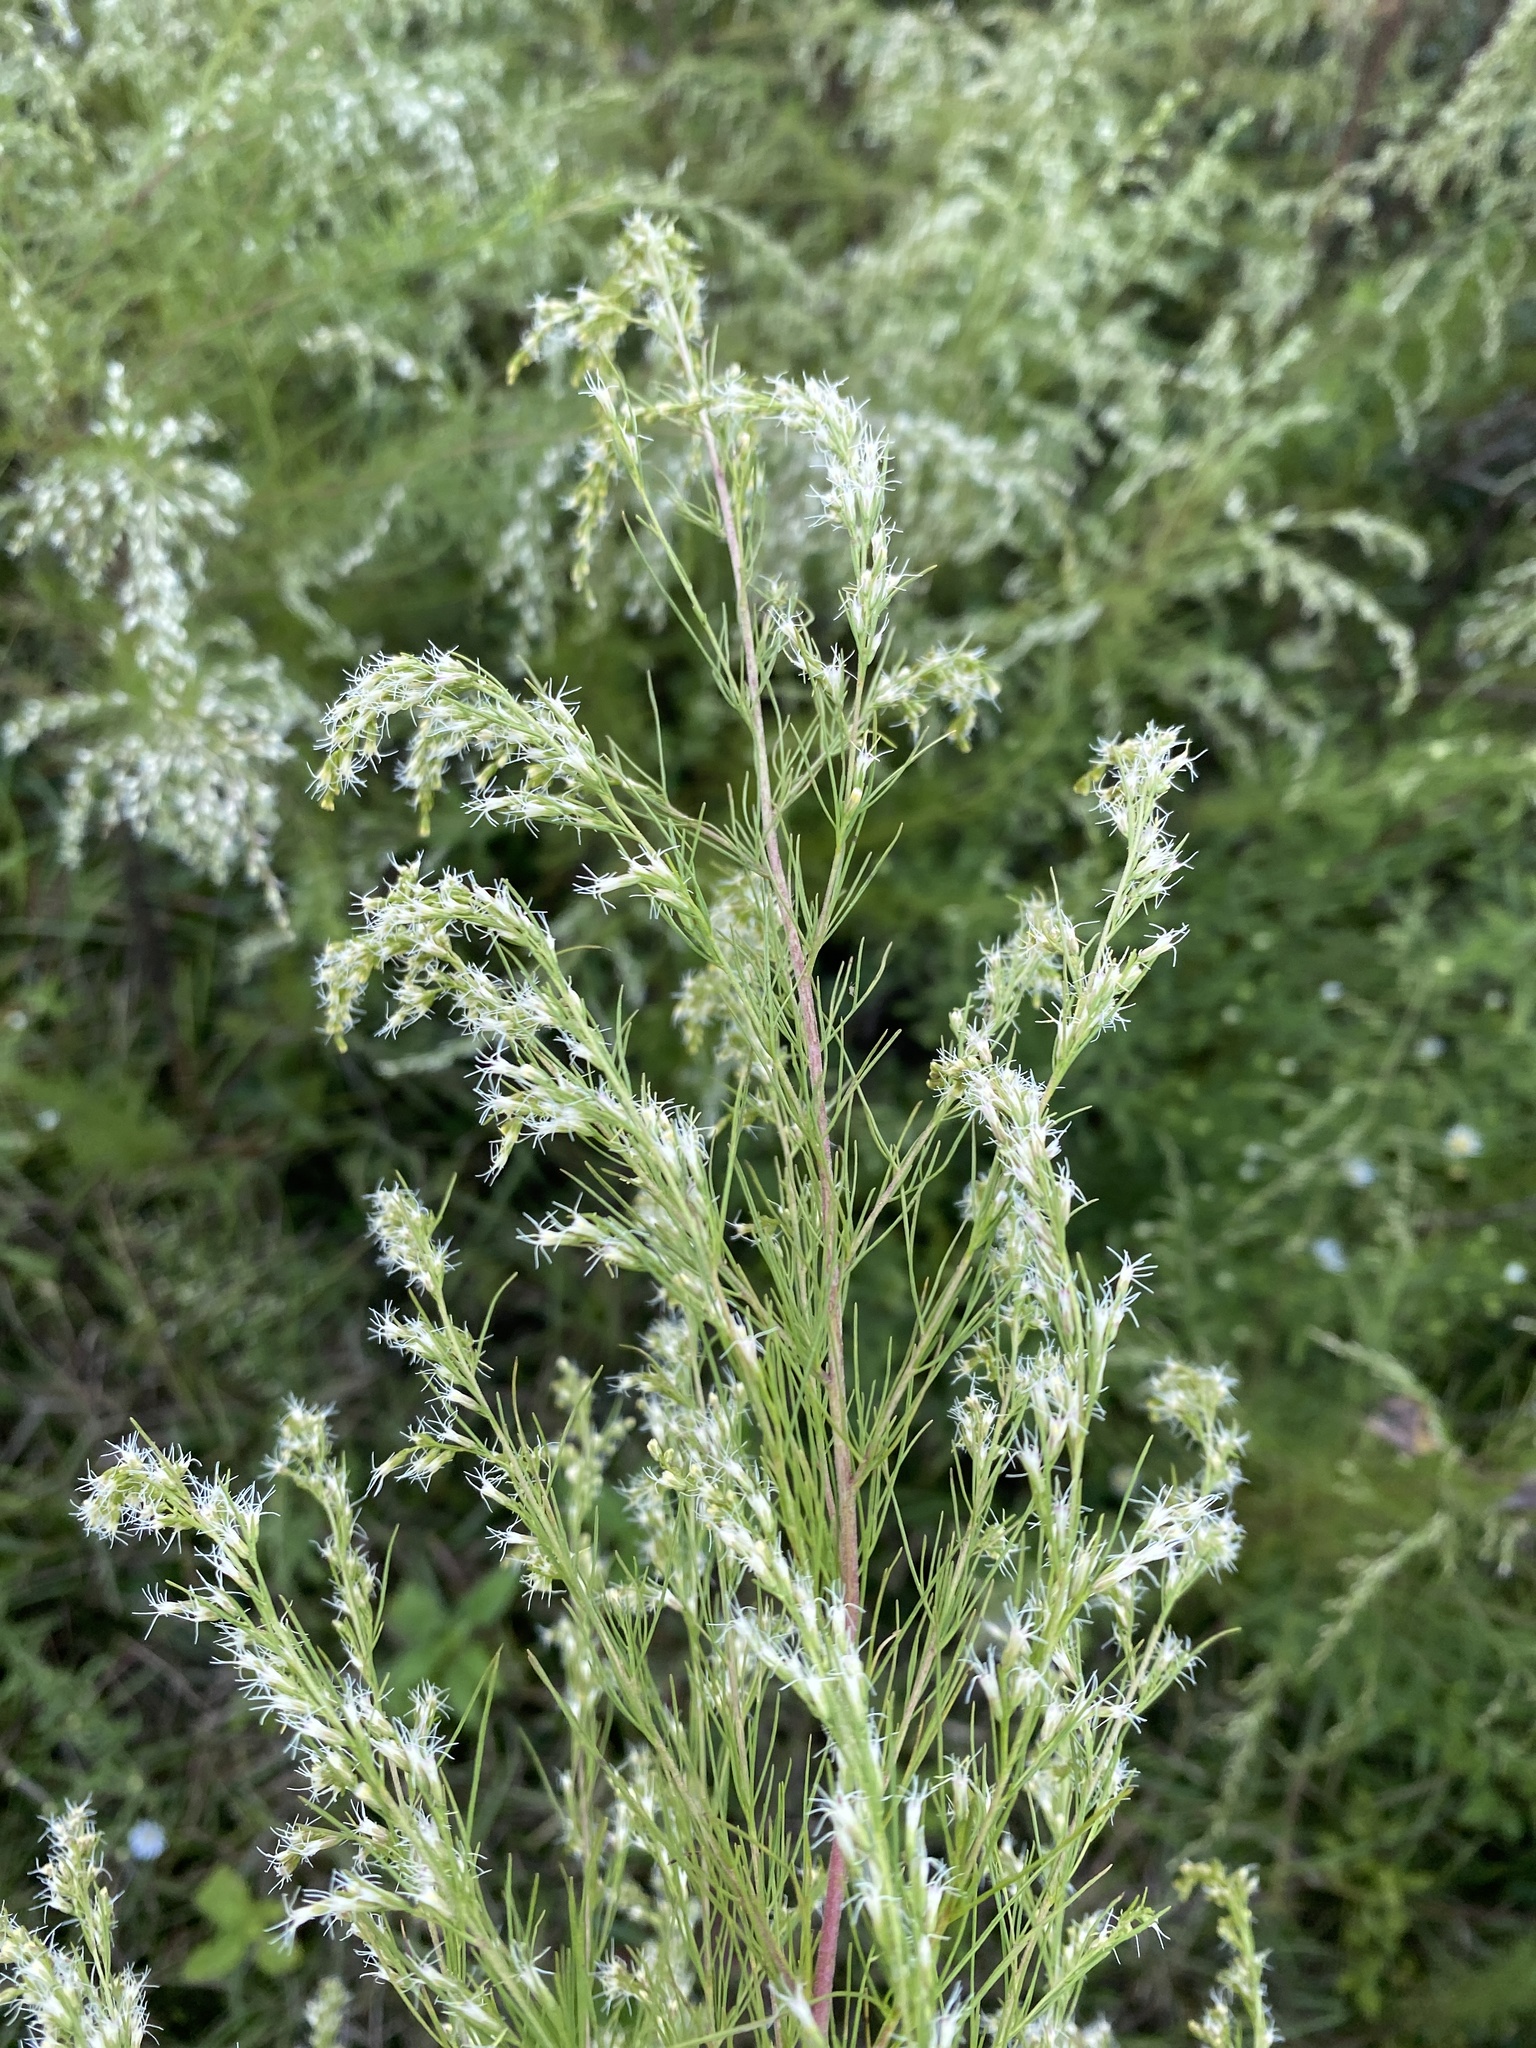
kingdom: Plantae
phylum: Tracheophyta
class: Magnoliopsida
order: Asterales
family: Asteraceae
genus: Eupatorium
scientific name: Eupatorium capillifolium
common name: Dog-fennel
